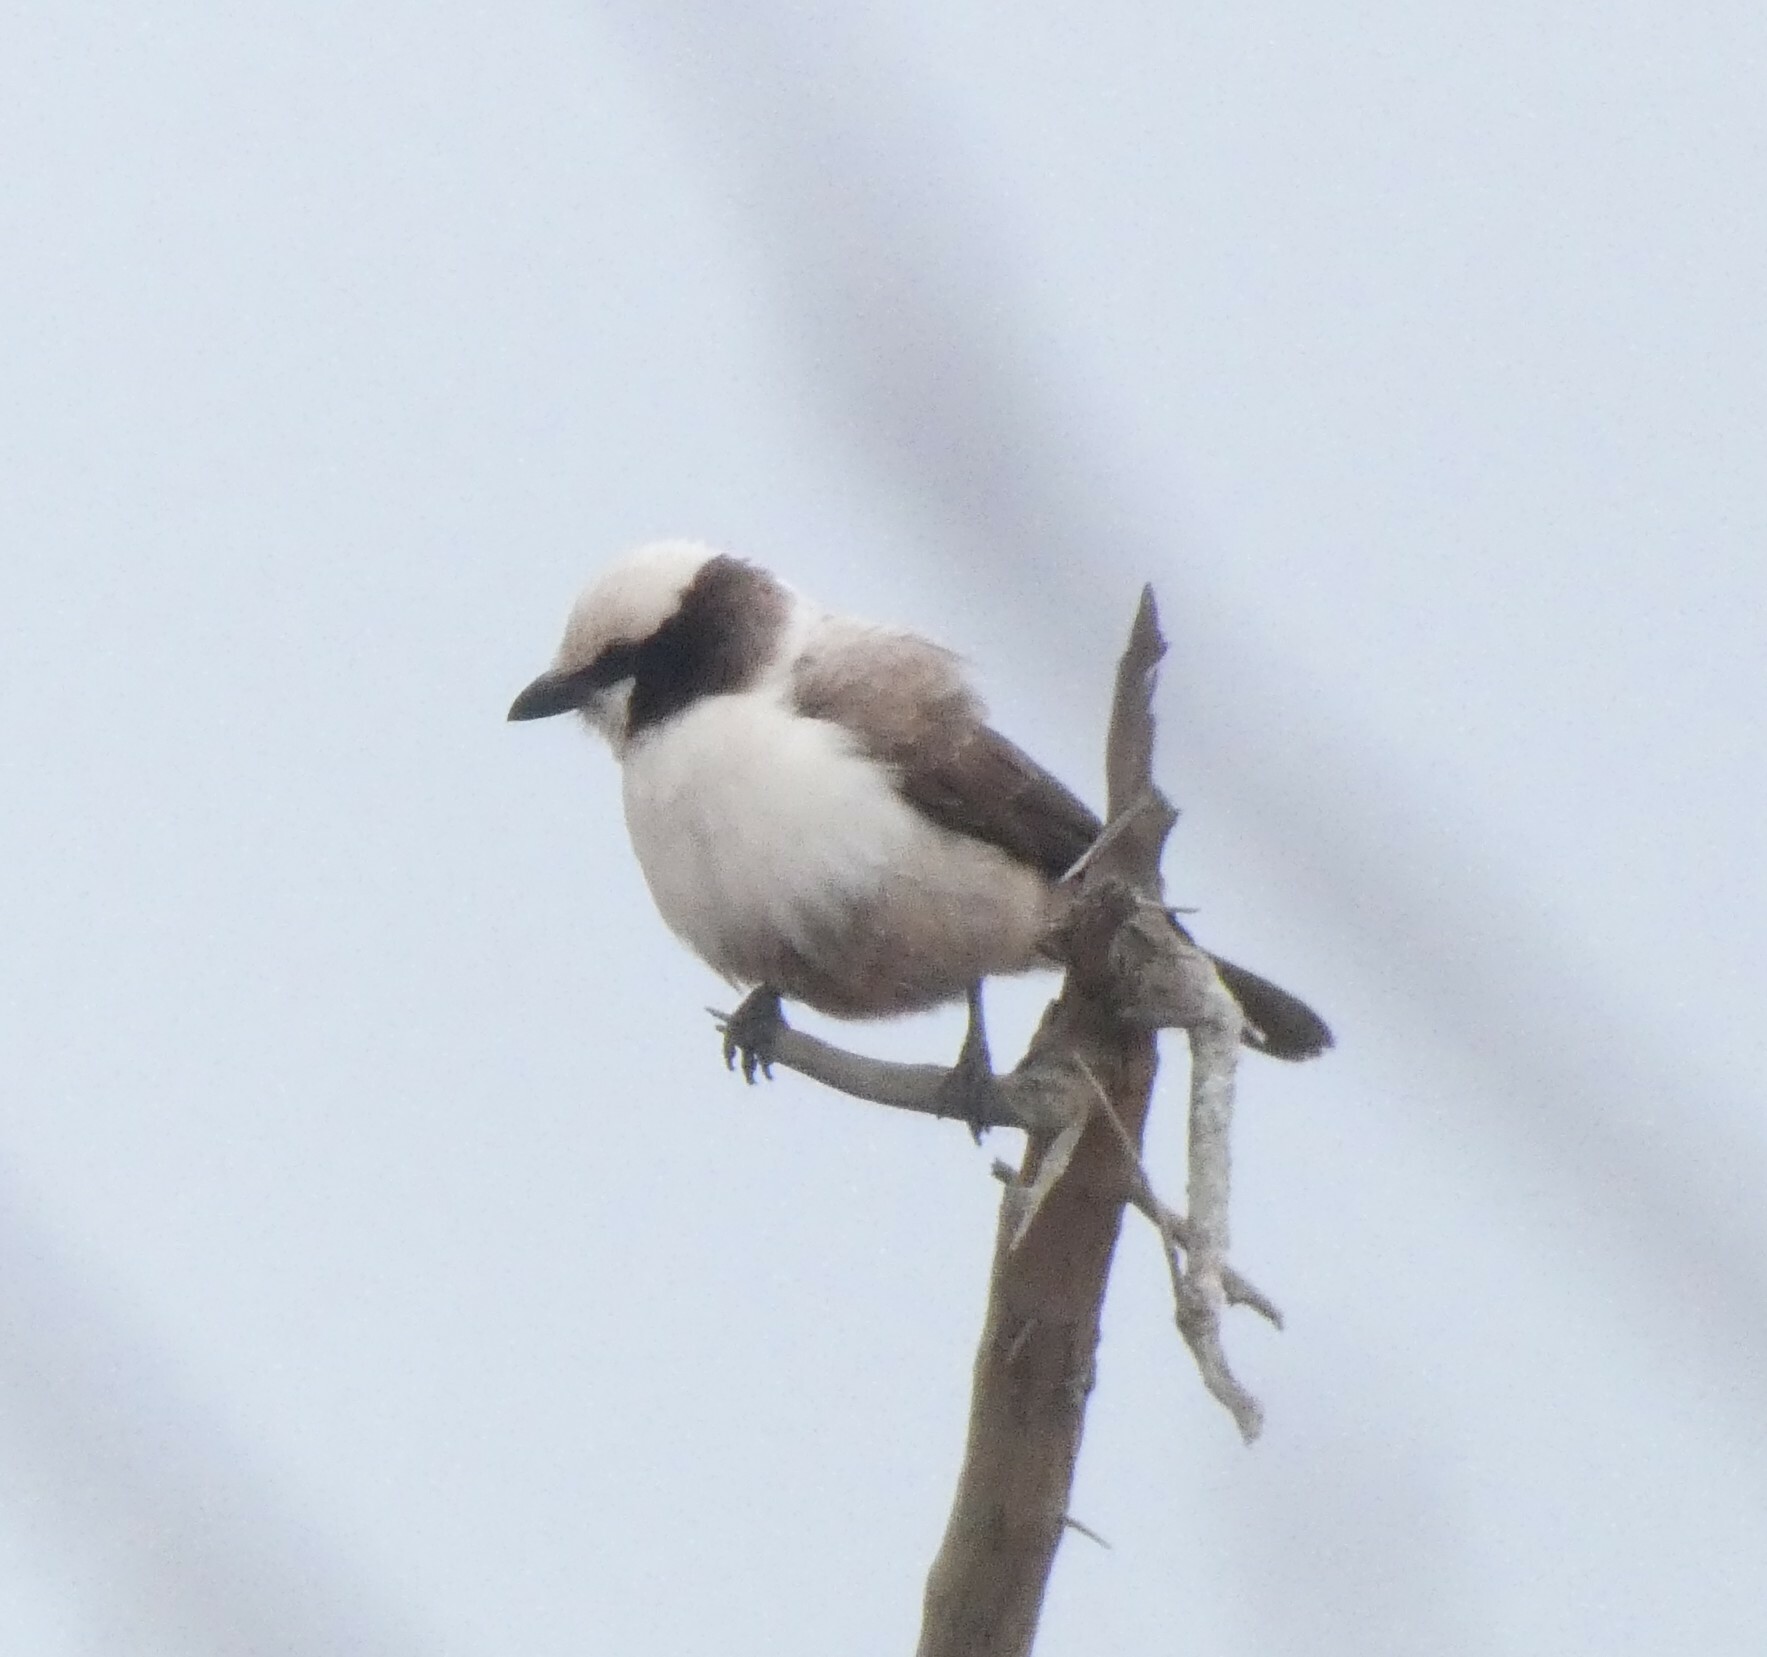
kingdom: Animalia
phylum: Chordata
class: Aves
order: Passeriformes
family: Laniidae
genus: Eurocephalus
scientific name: Eurocephalus anguitimens
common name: Southern white-crowned shrike
